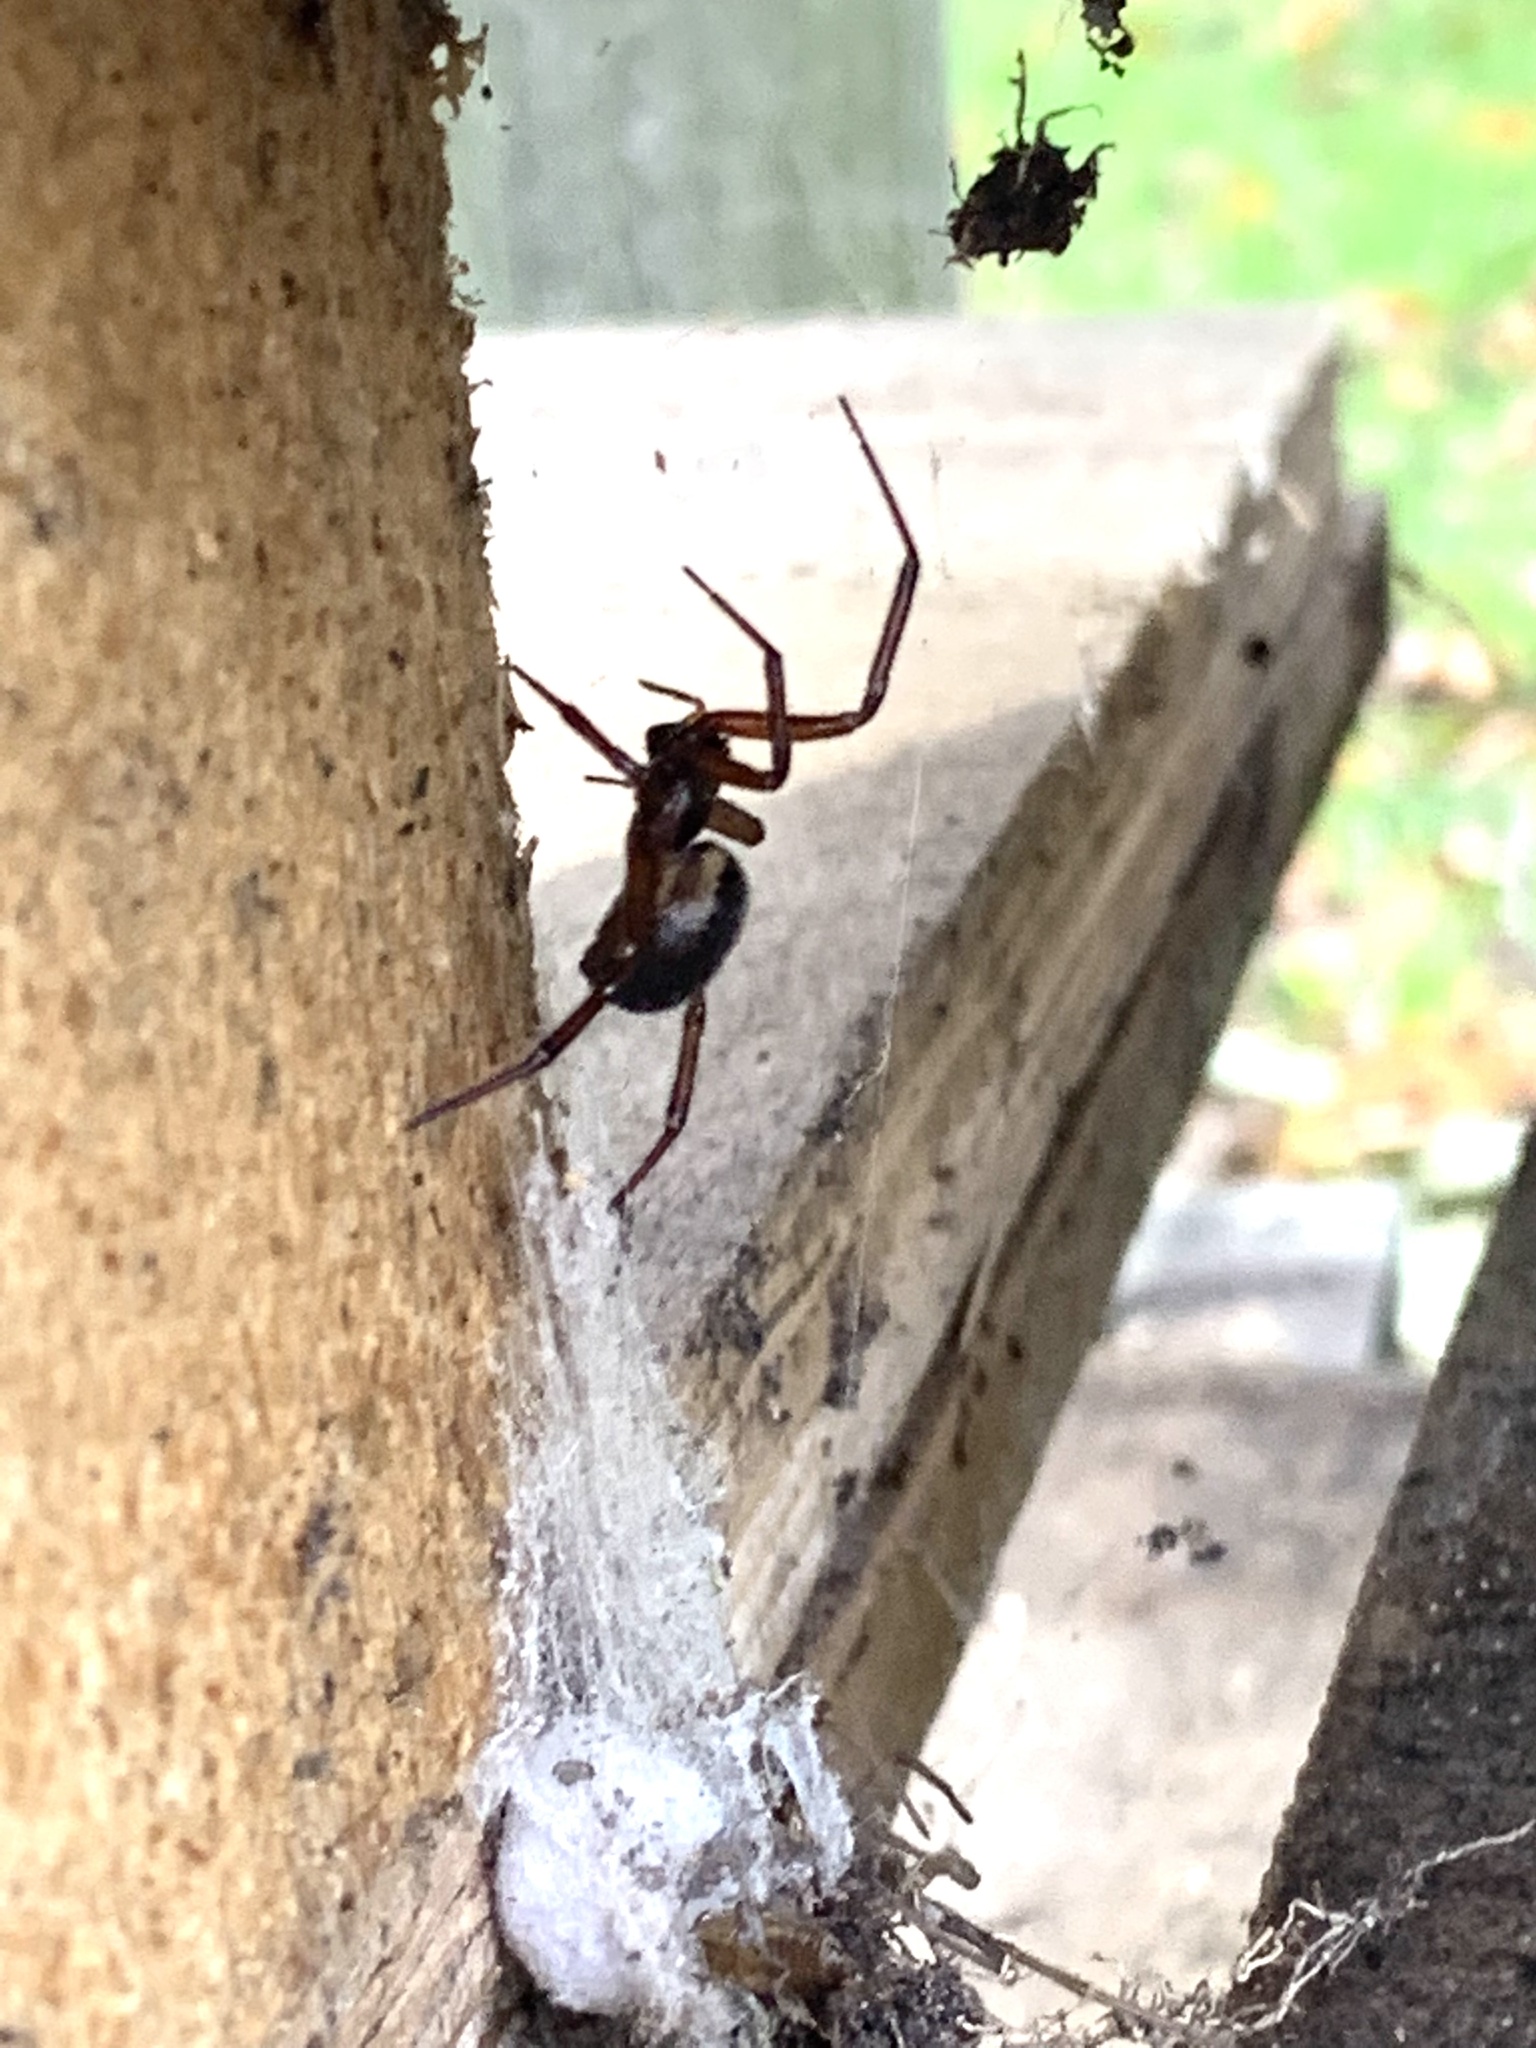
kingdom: Animalia
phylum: Arthropoda
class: Arachnida
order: Araneae
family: Theridiidae
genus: Steatoda
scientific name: Steatoda nobilis
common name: Cobweb weaver
